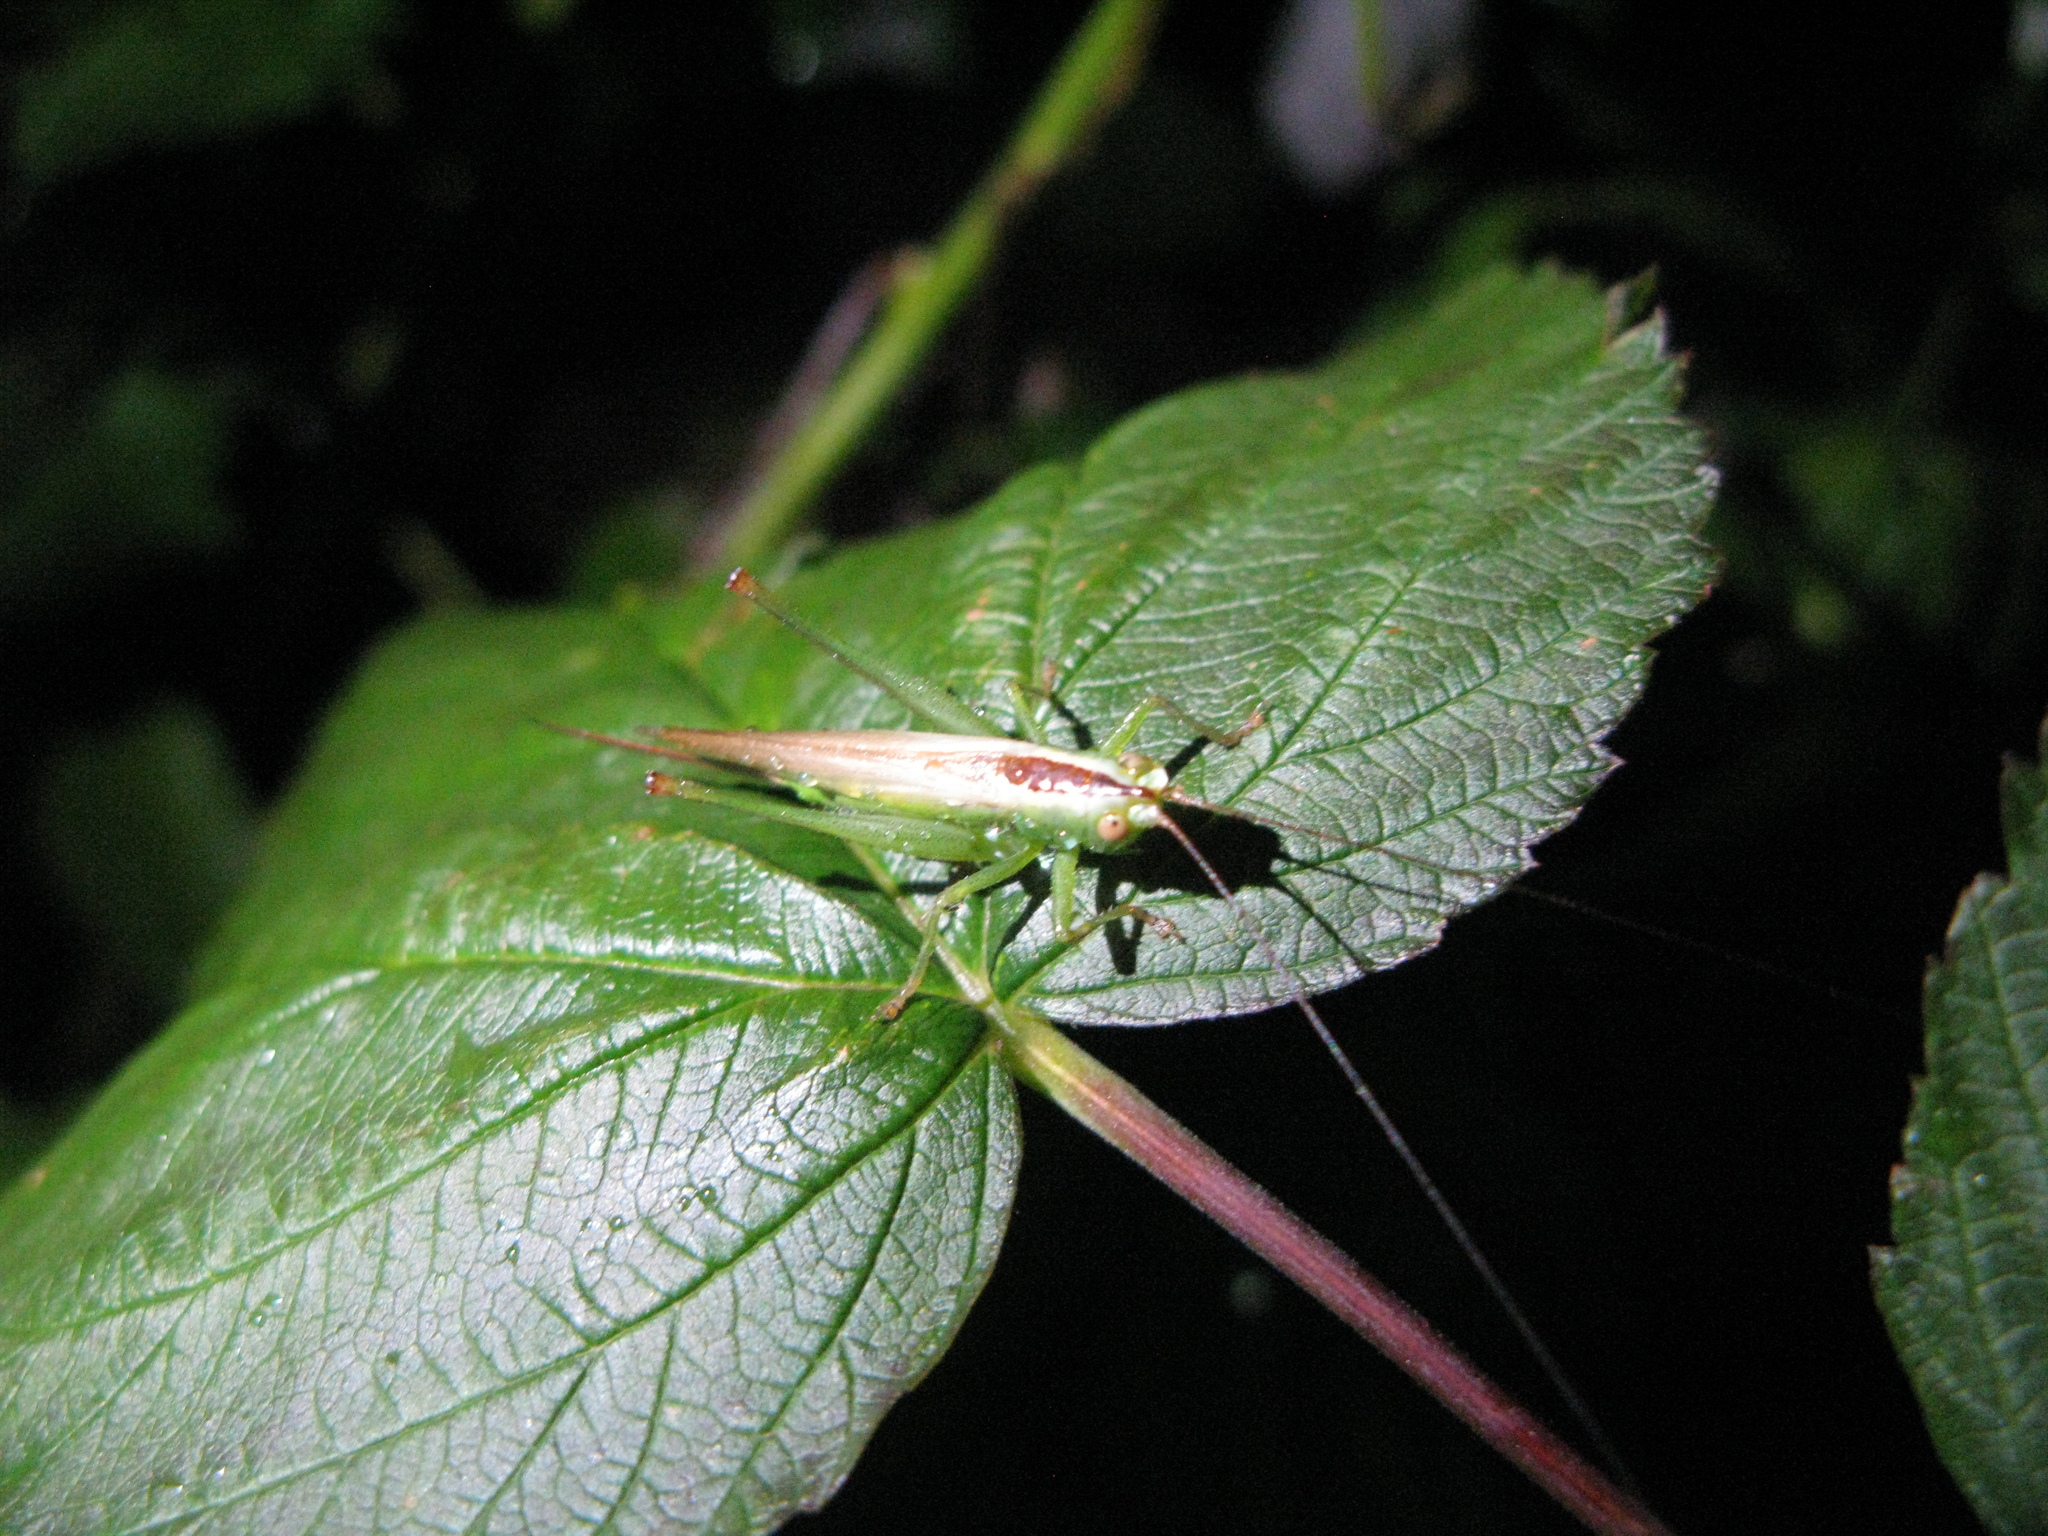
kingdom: Animalia
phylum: Arthropoda
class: Insecta
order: Orthoptera
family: Tettigoniidae
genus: Conocephalus
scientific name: Conocephalus fuscus
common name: Long-winged conehead
